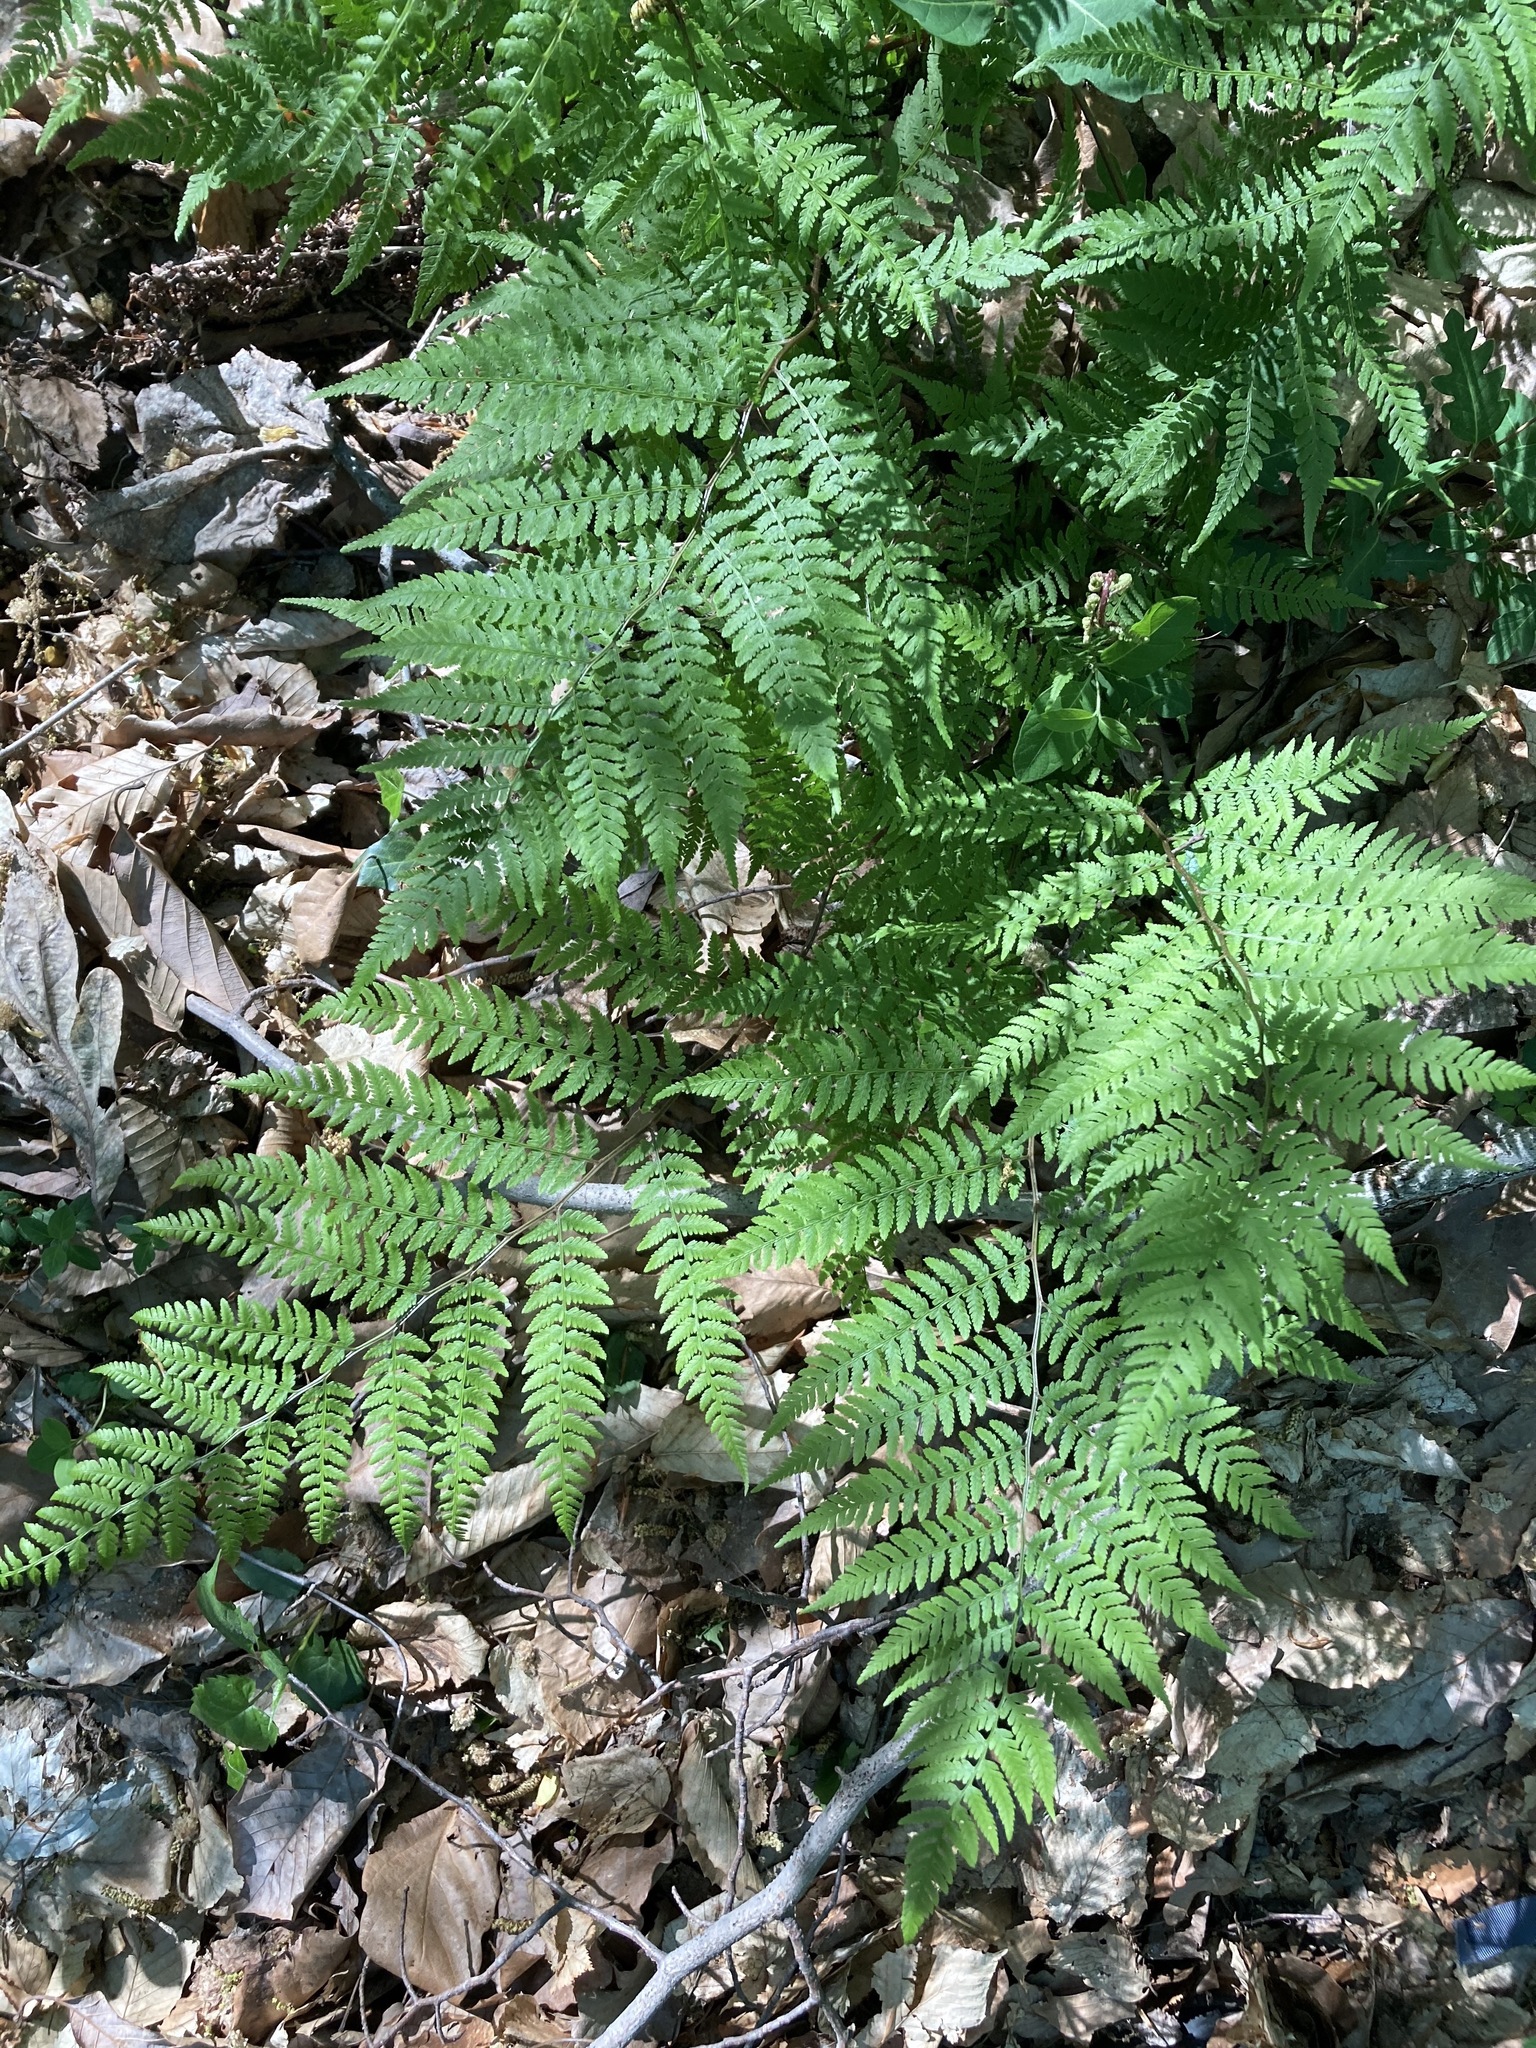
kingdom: Plantae
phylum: Tracheophyta
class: Polypodiopsida
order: Polypodiales
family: Athyriaceae
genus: Athyrium
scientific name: Athyrium asplenioides
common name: Southern lady fern
